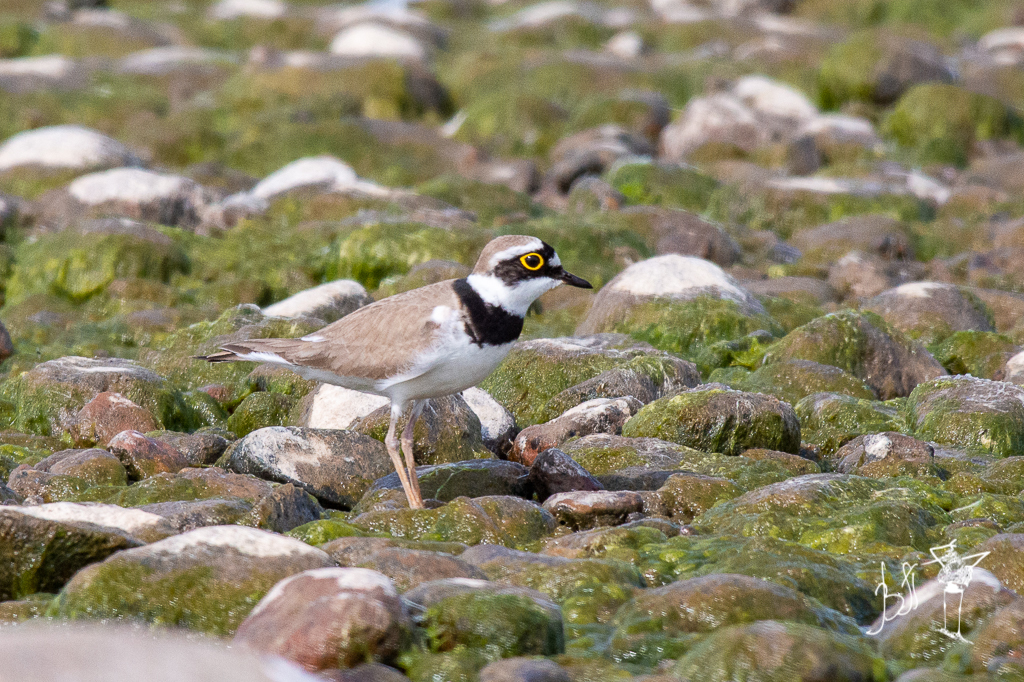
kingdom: Animalia
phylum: Chordata
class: Aves
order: Charadriiformes
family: Charadriidae
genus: Charadrius
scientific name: Charadrius dubius
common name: Little ringed plover
